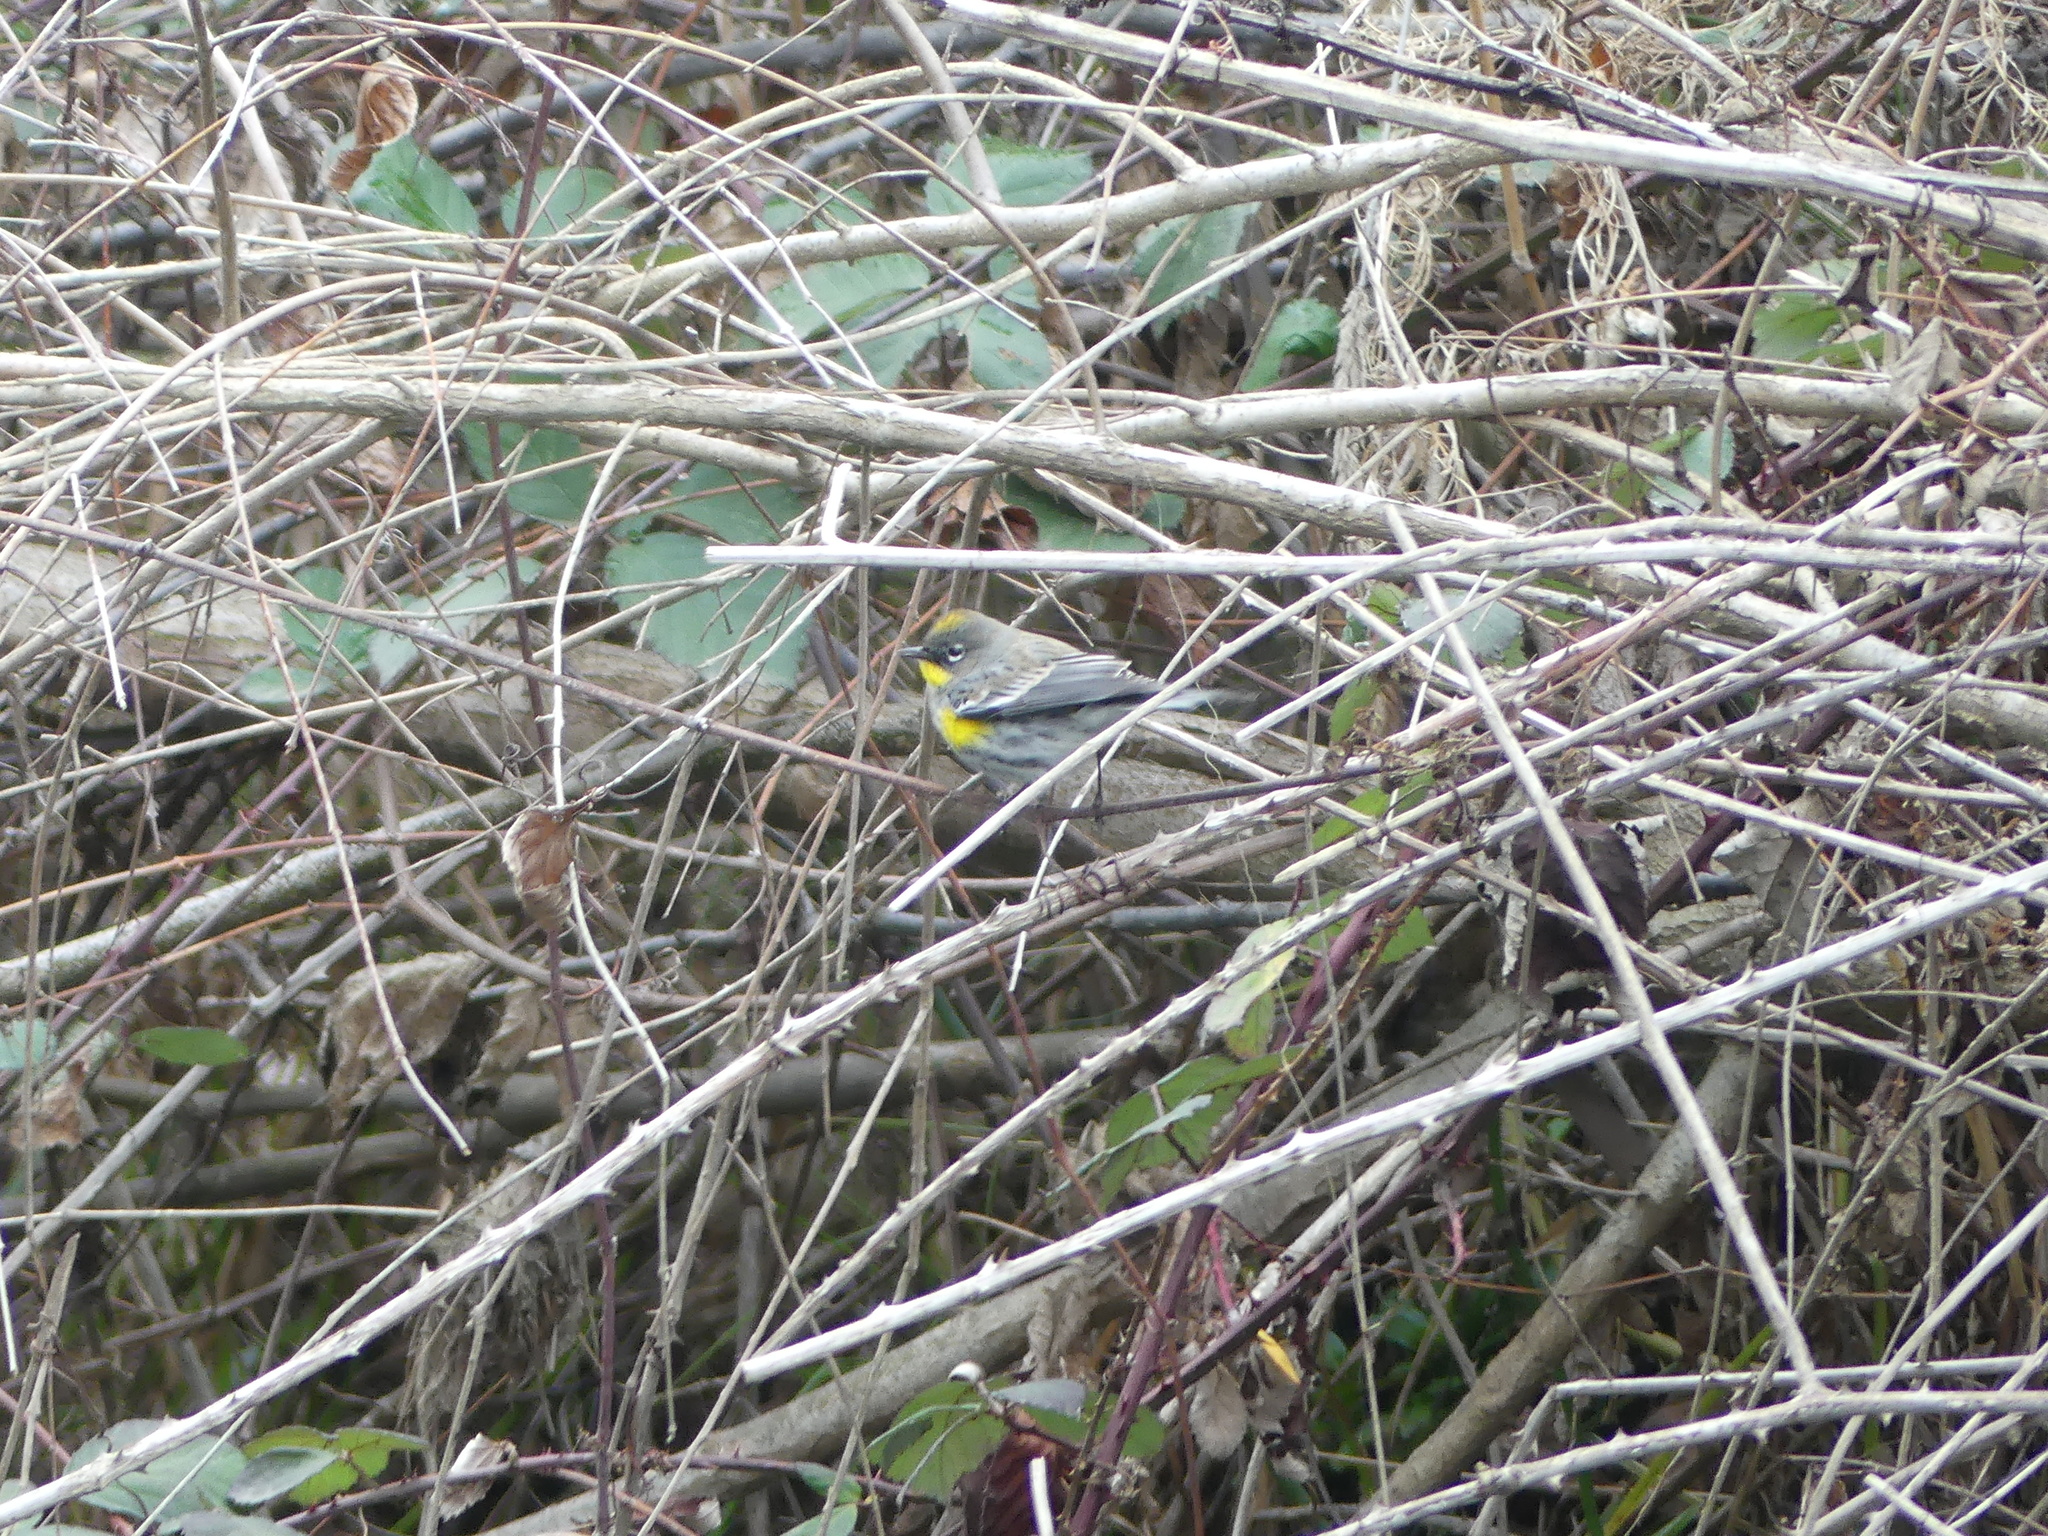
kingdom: Animalia
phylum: Chordata
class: Aves
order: Passeriformes
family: Parulidae
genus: Setophaga
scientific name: Setophaga coronata
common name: Myrtle warbler
